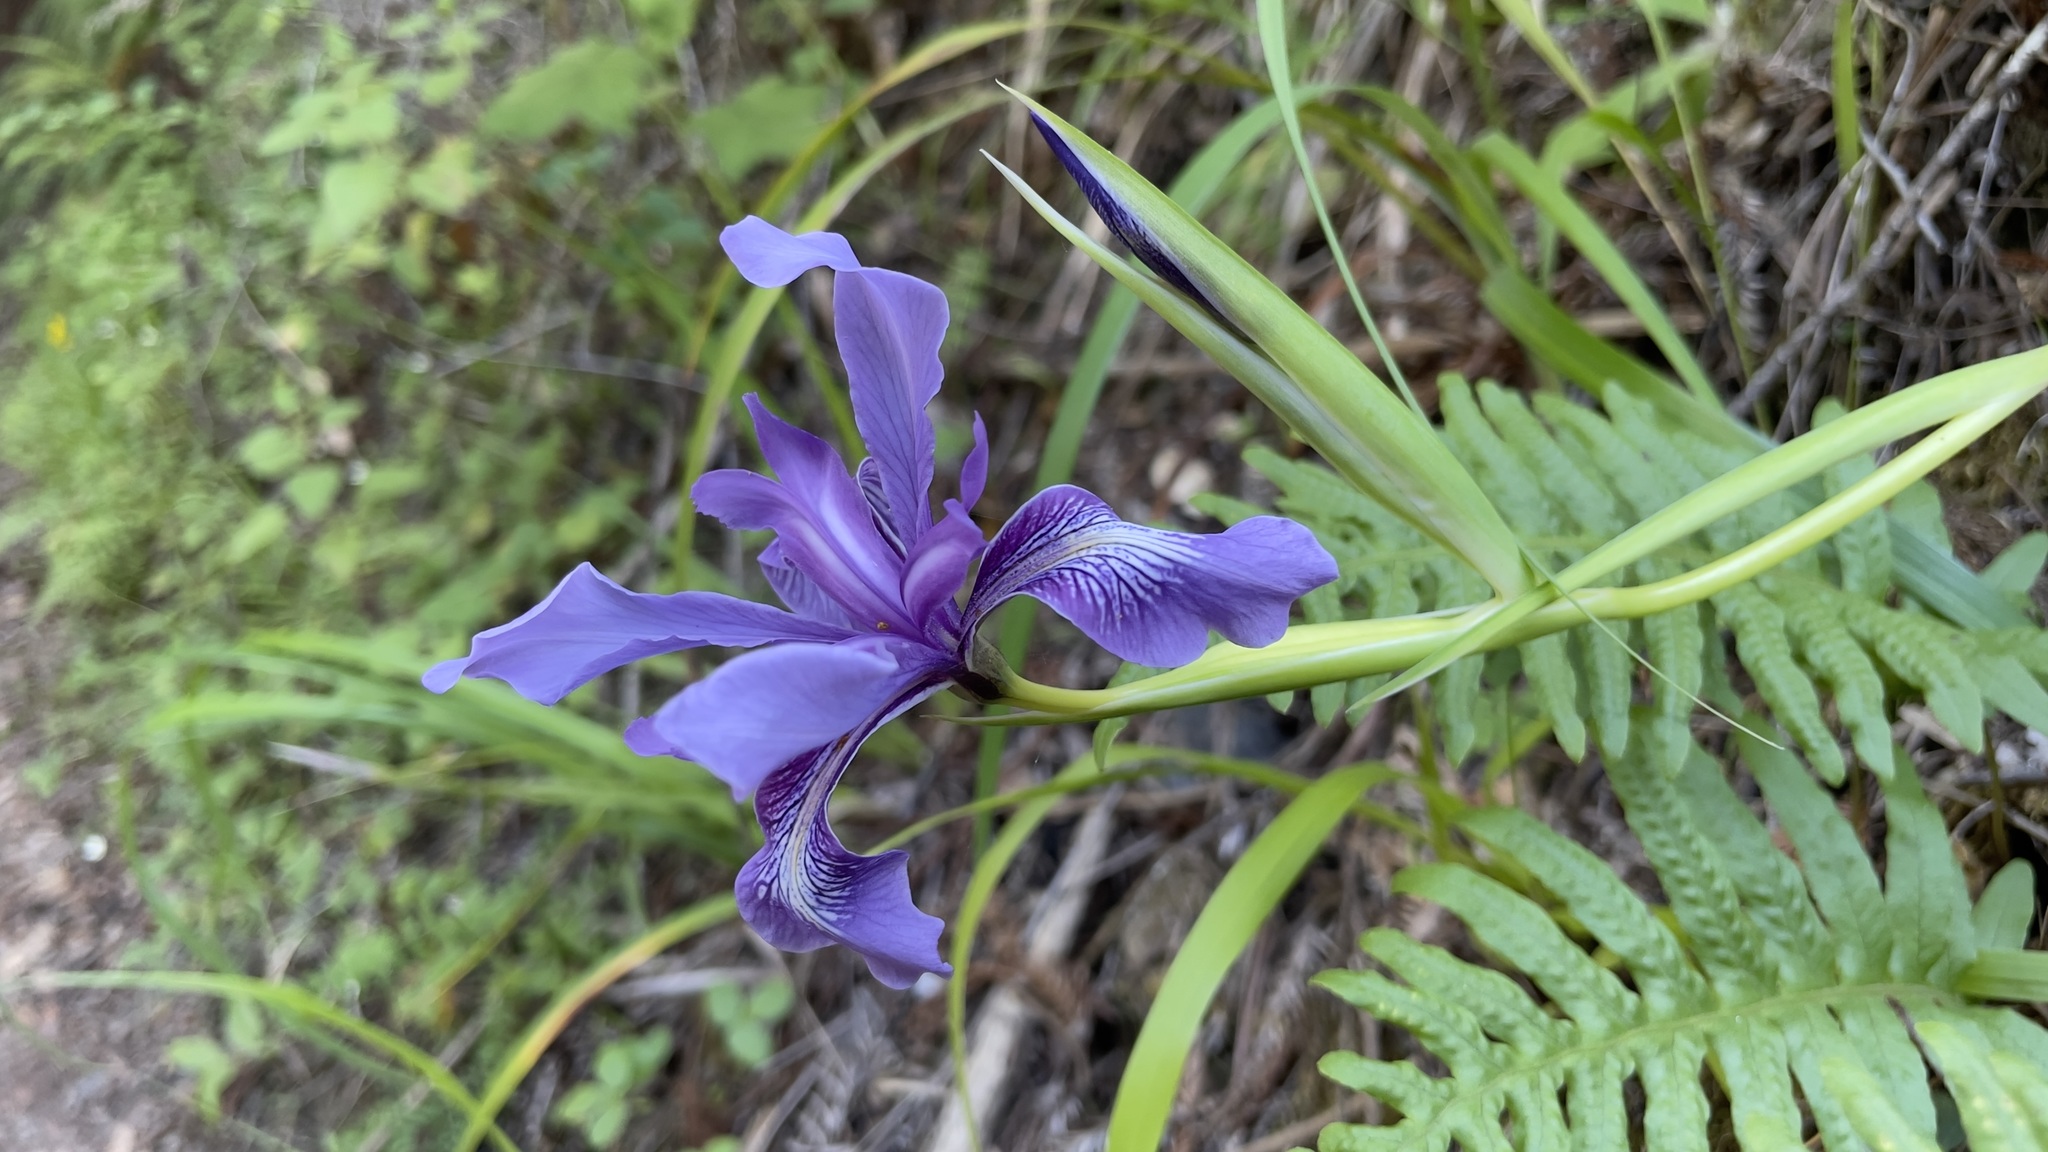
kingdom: Plantae
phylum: Tracheophyta
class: Liliopsida
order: Asparagales
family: Iridaceae
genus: Iris
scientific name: Iris douglasiana
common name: Marin iris
